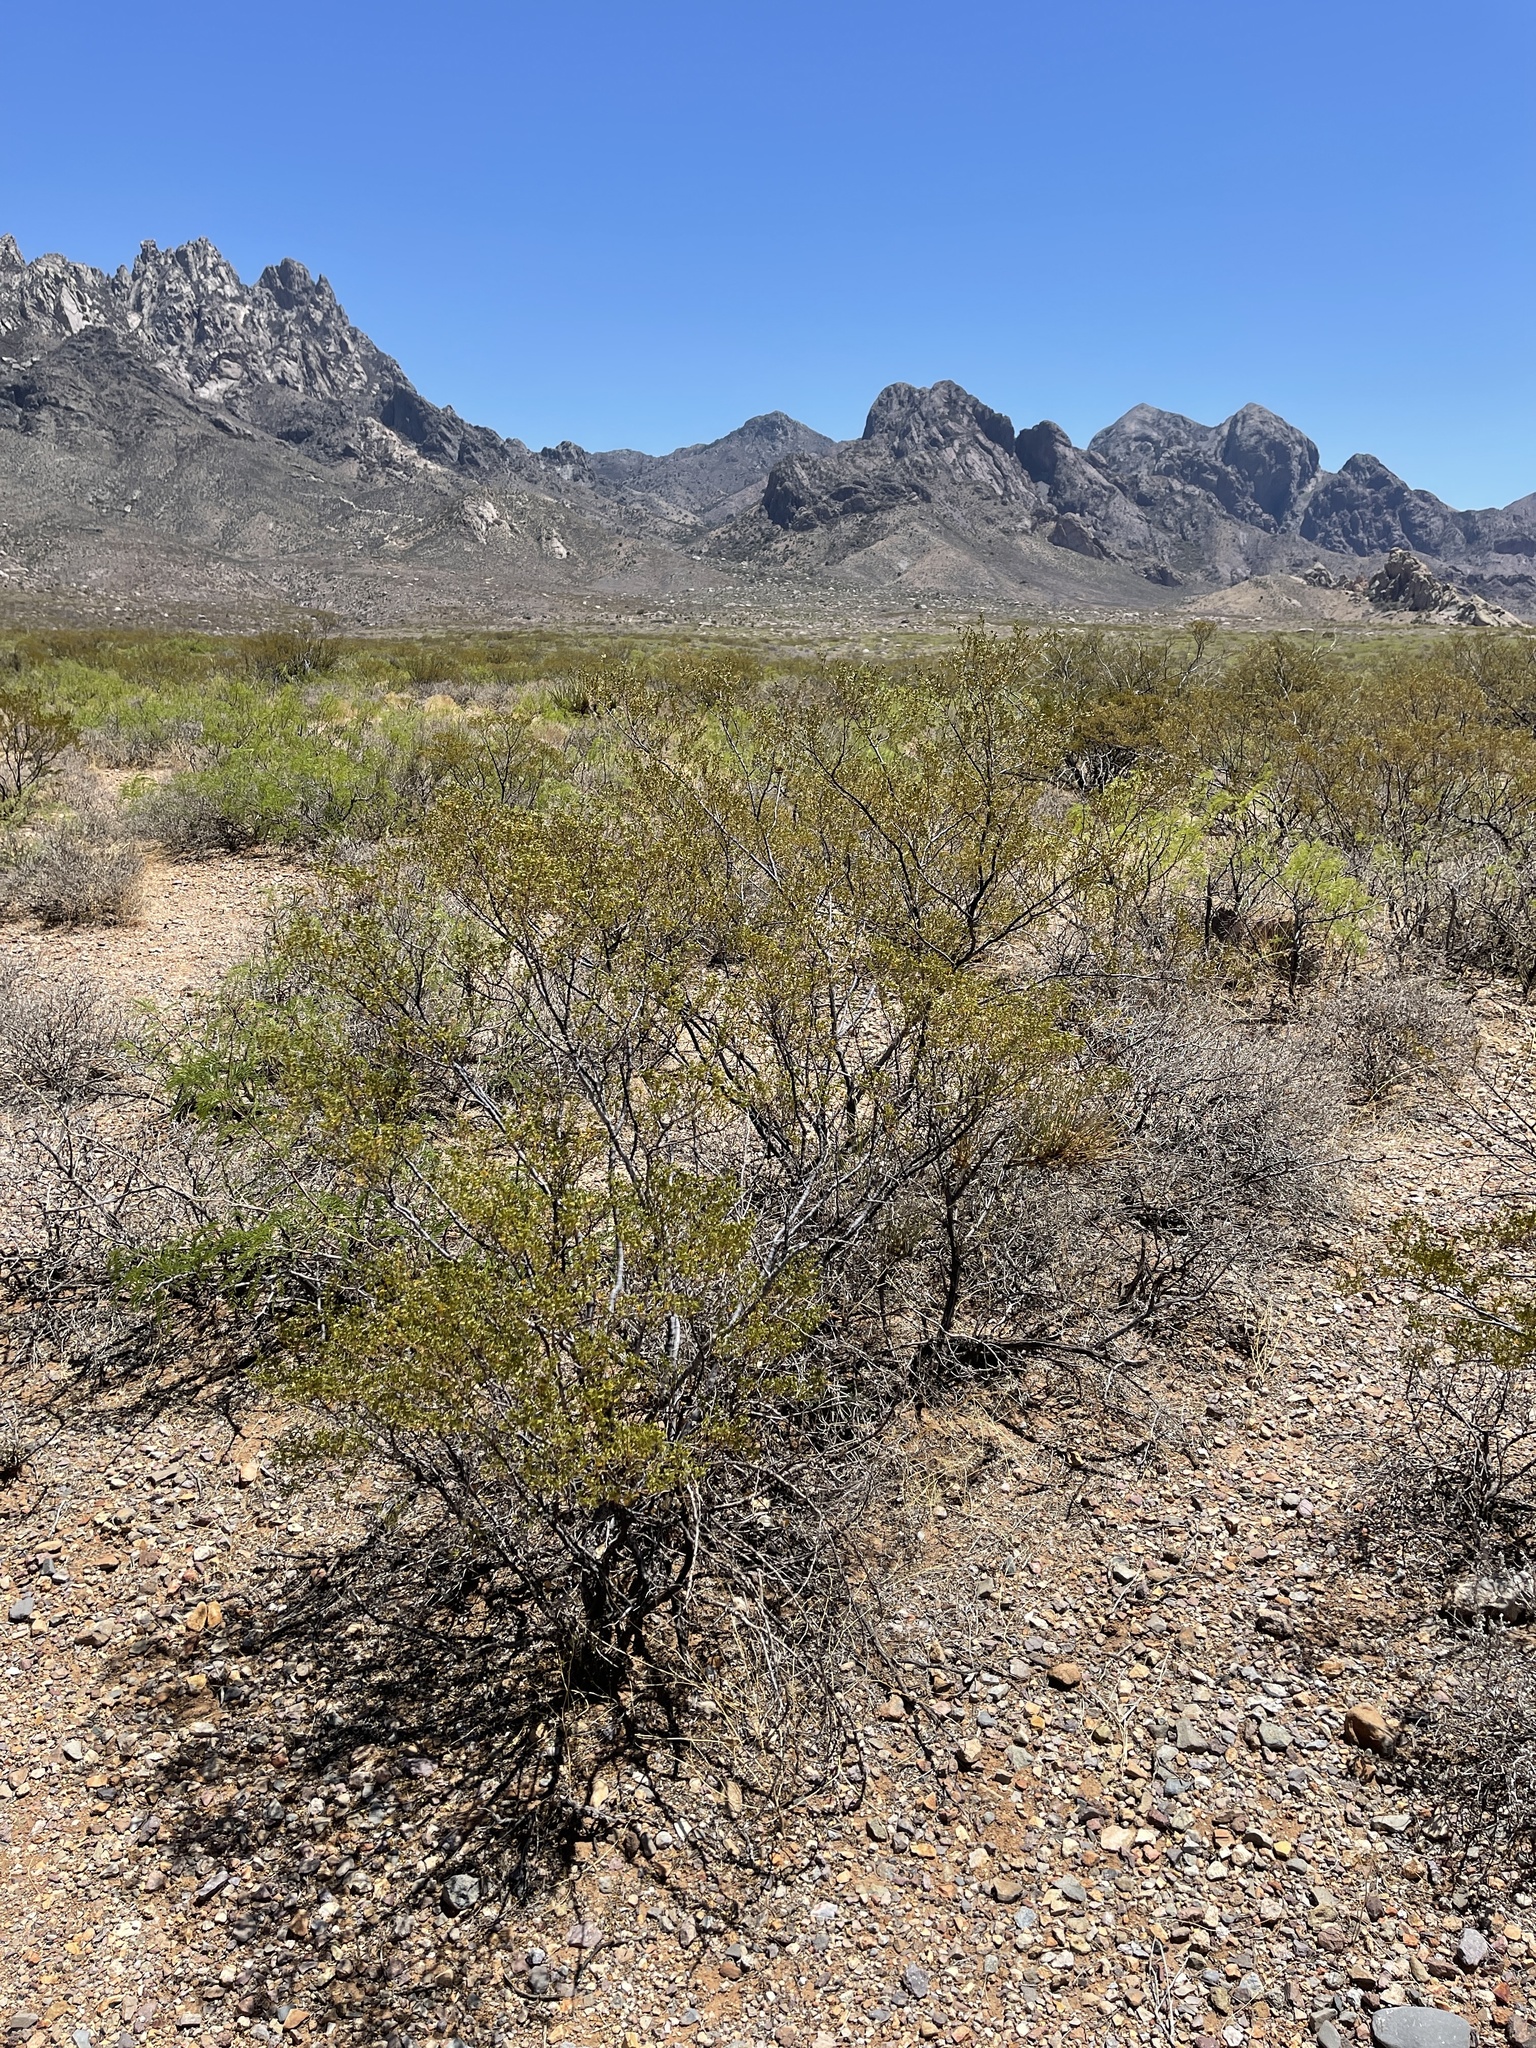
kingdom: Plantae
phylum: Tracheophyta
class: Magnoliopsida
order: Zygophyllales
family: Zygophyllaceae
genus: Larrea
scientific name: Larrea tridentata
